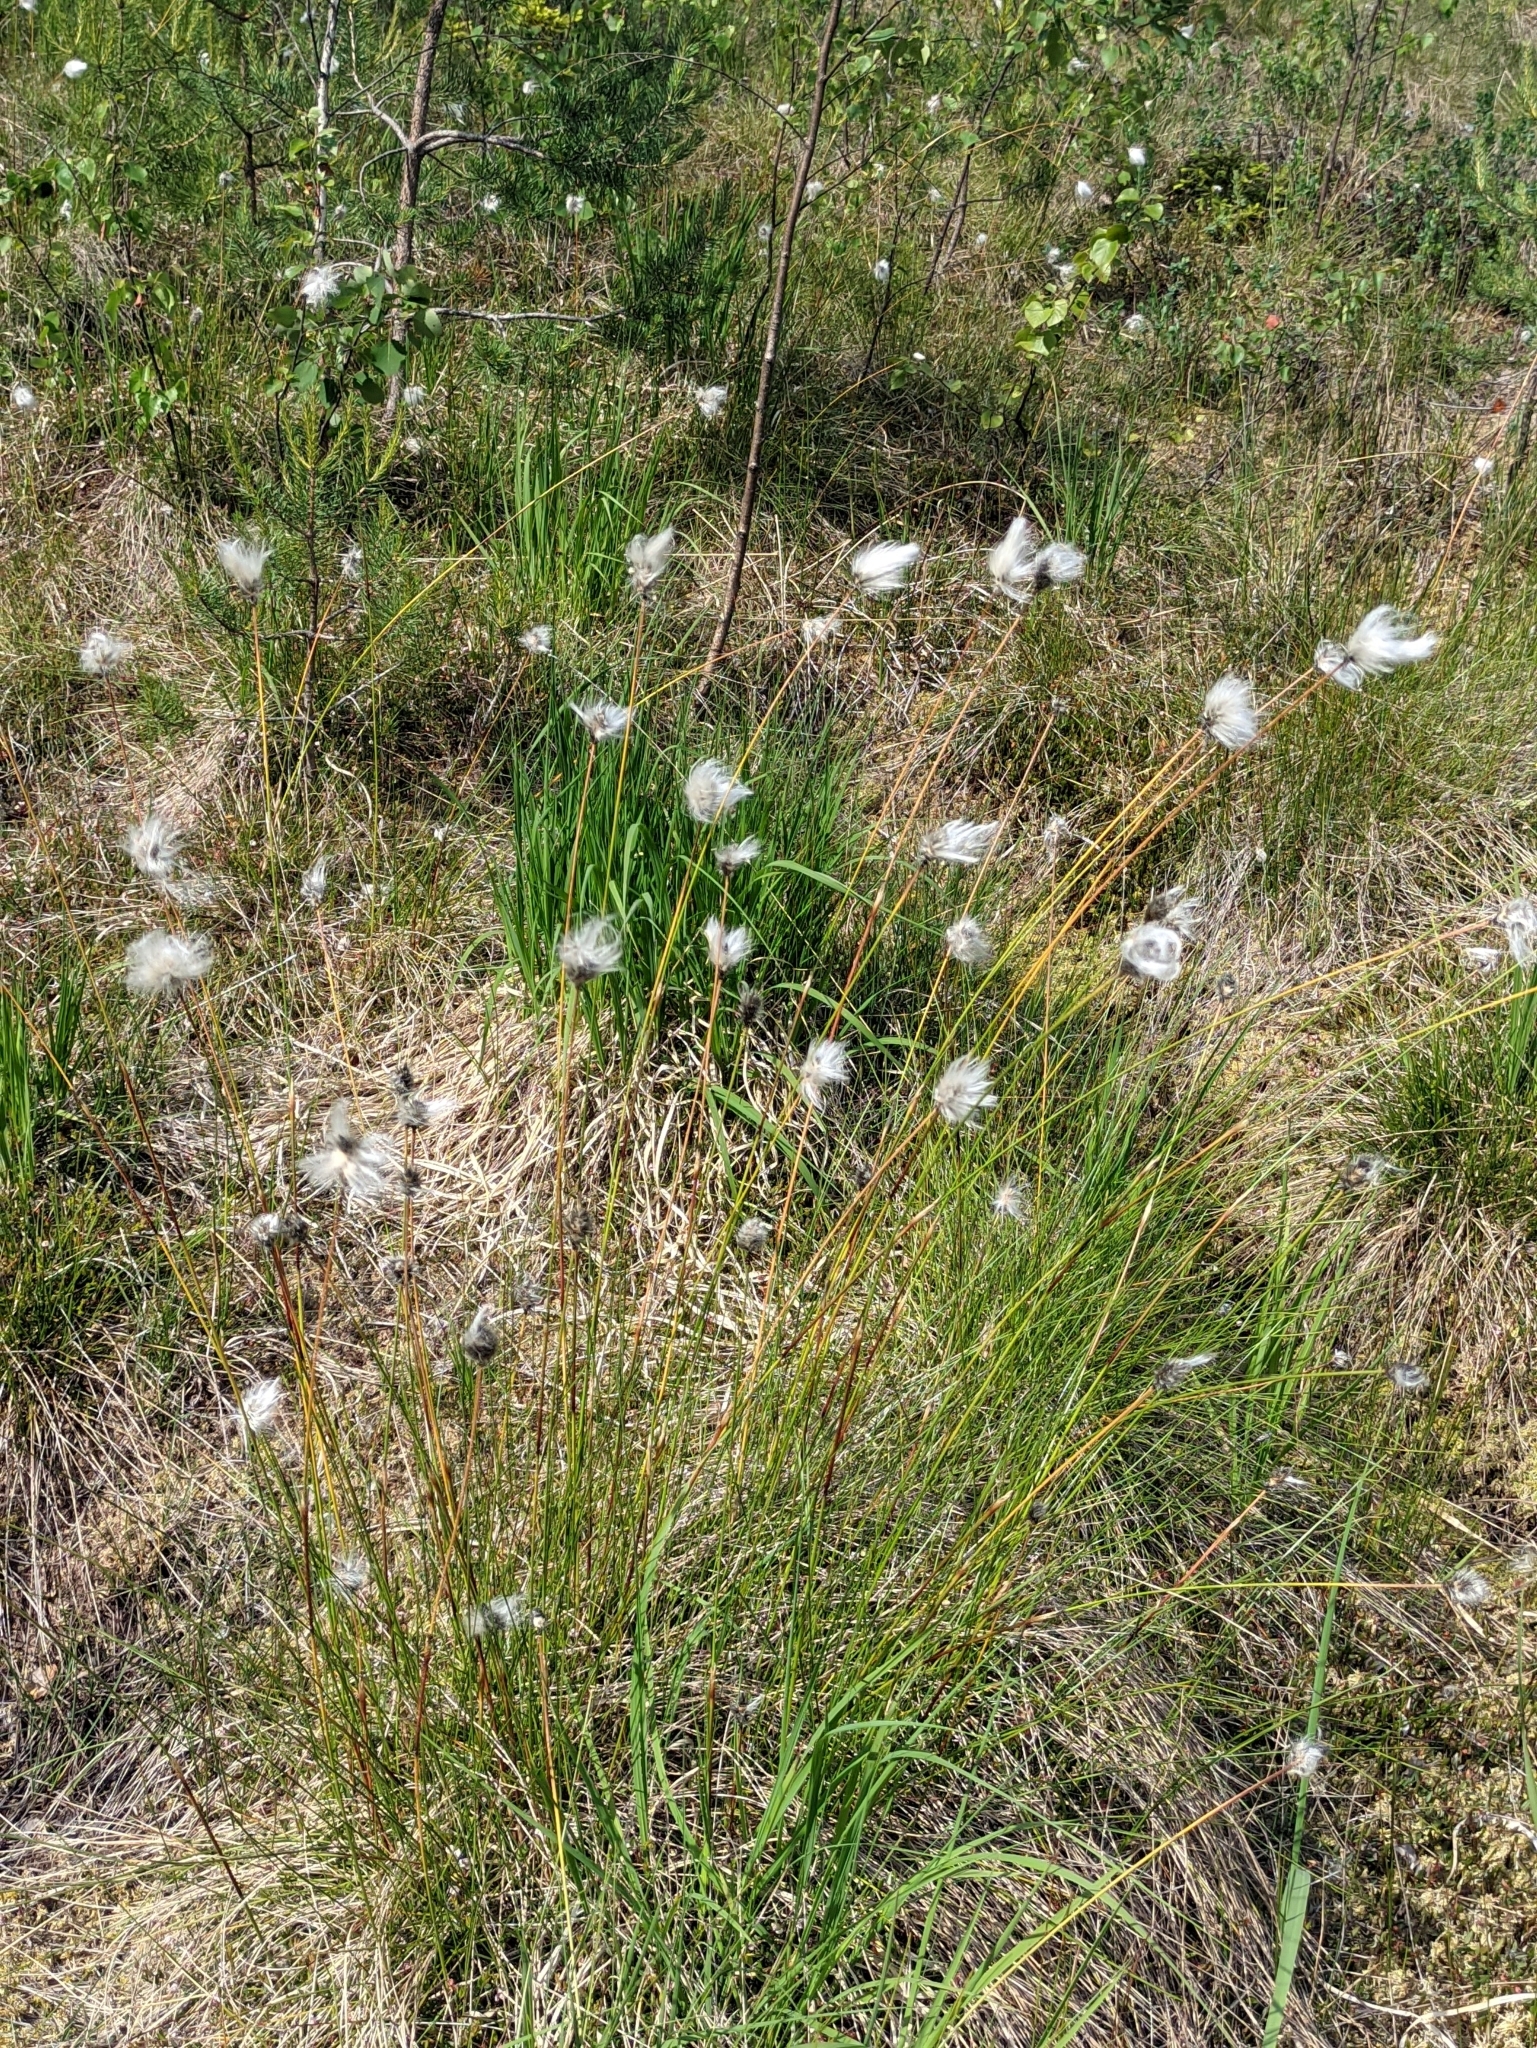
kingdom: Plantae
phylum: Tracheophyta
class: Liliopsida
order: Poales
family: Cyperaceae
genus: Eriophorum
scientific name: Eriophorum vaginatum
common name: Hare's-tail cottongrass
